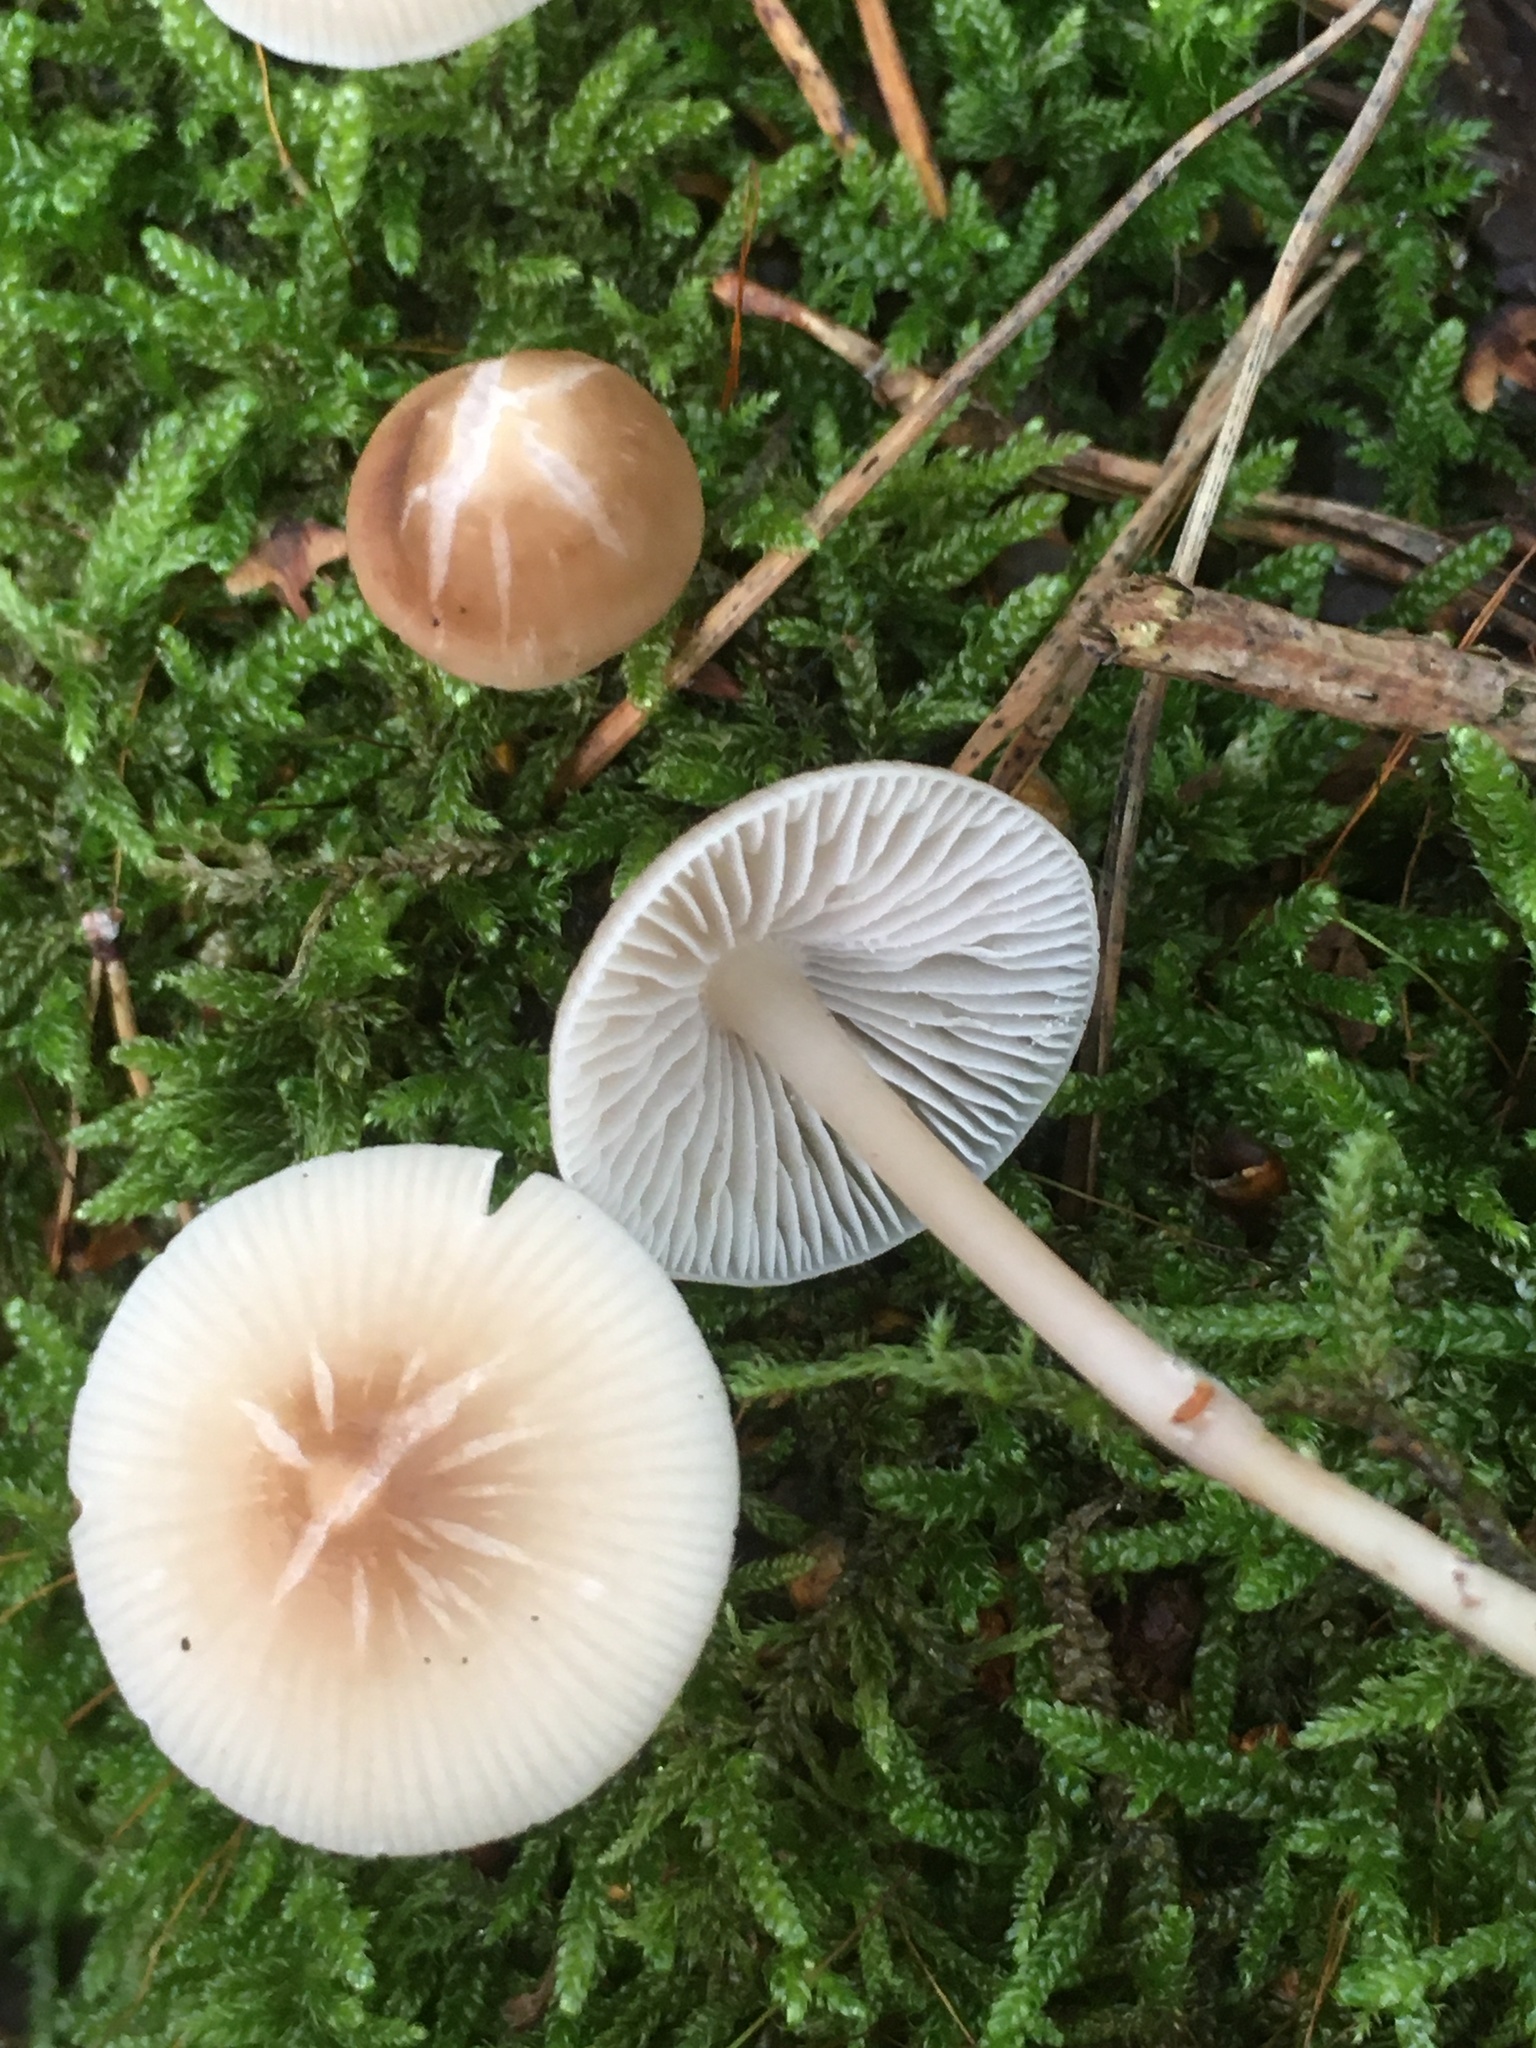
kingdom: Fungi
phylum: Basidiomycota
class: Agaricomycetes
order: Agaricales
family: Mycenaceae
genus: Mycena
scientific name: Mycena galericulata
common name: Bonnet mycena
